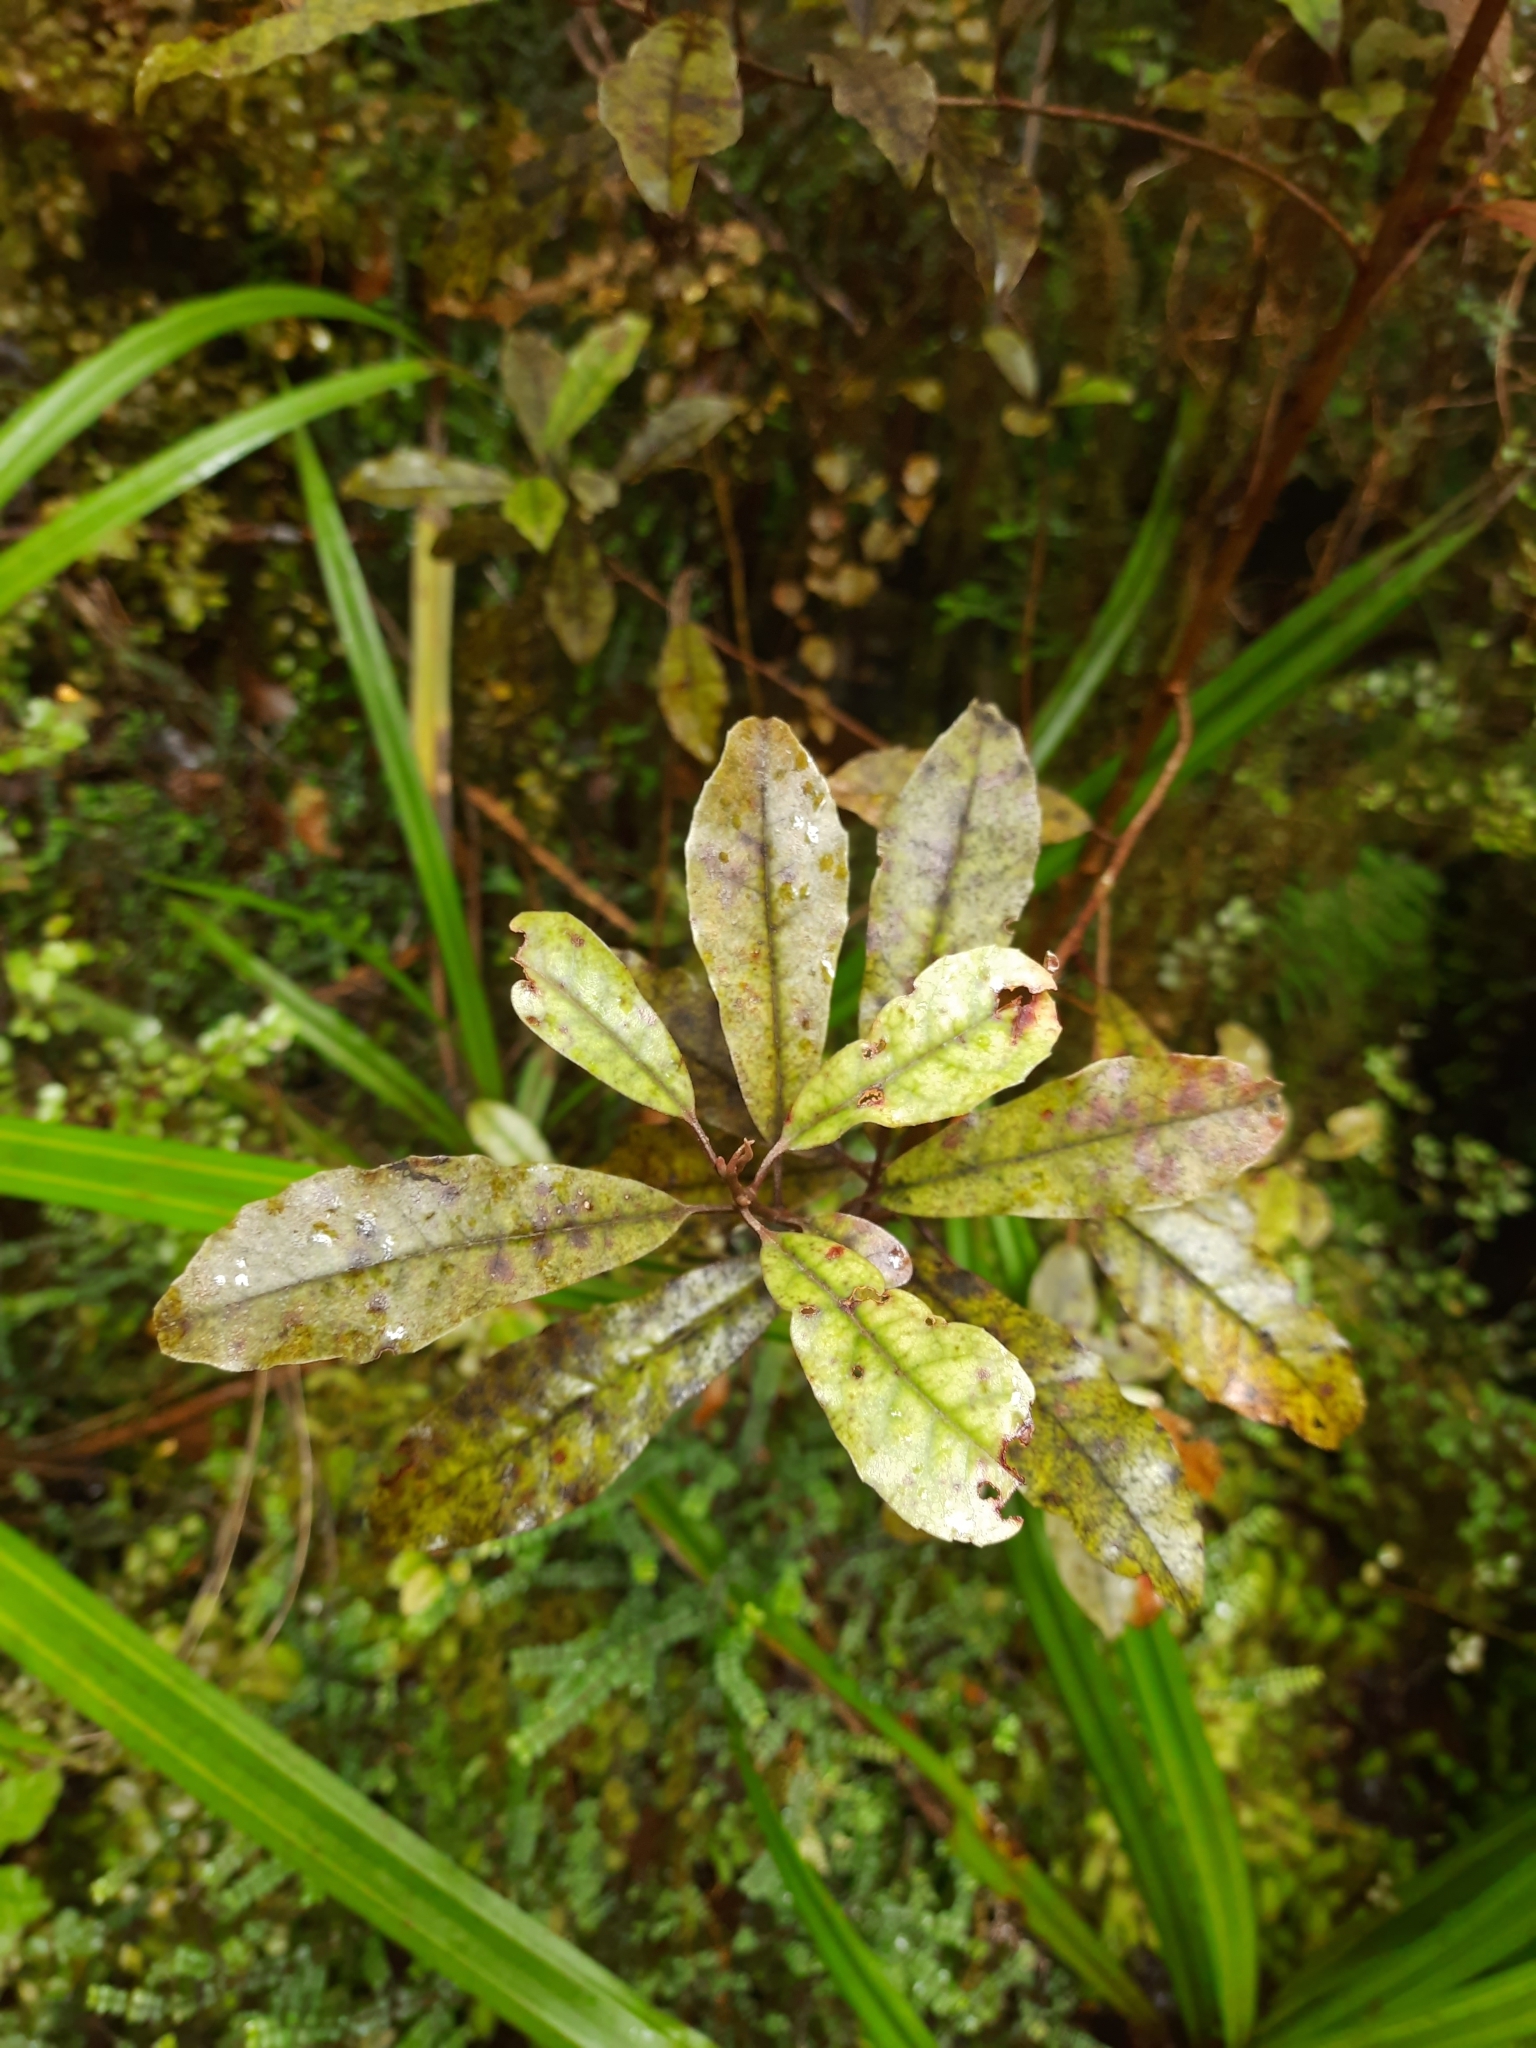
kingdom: Plantae
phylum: Tracheophyta
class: Magnoliopsida
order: Paracryphiales
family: Paracryphiaceae
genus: Quintinia
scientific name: Quintinia serrata
